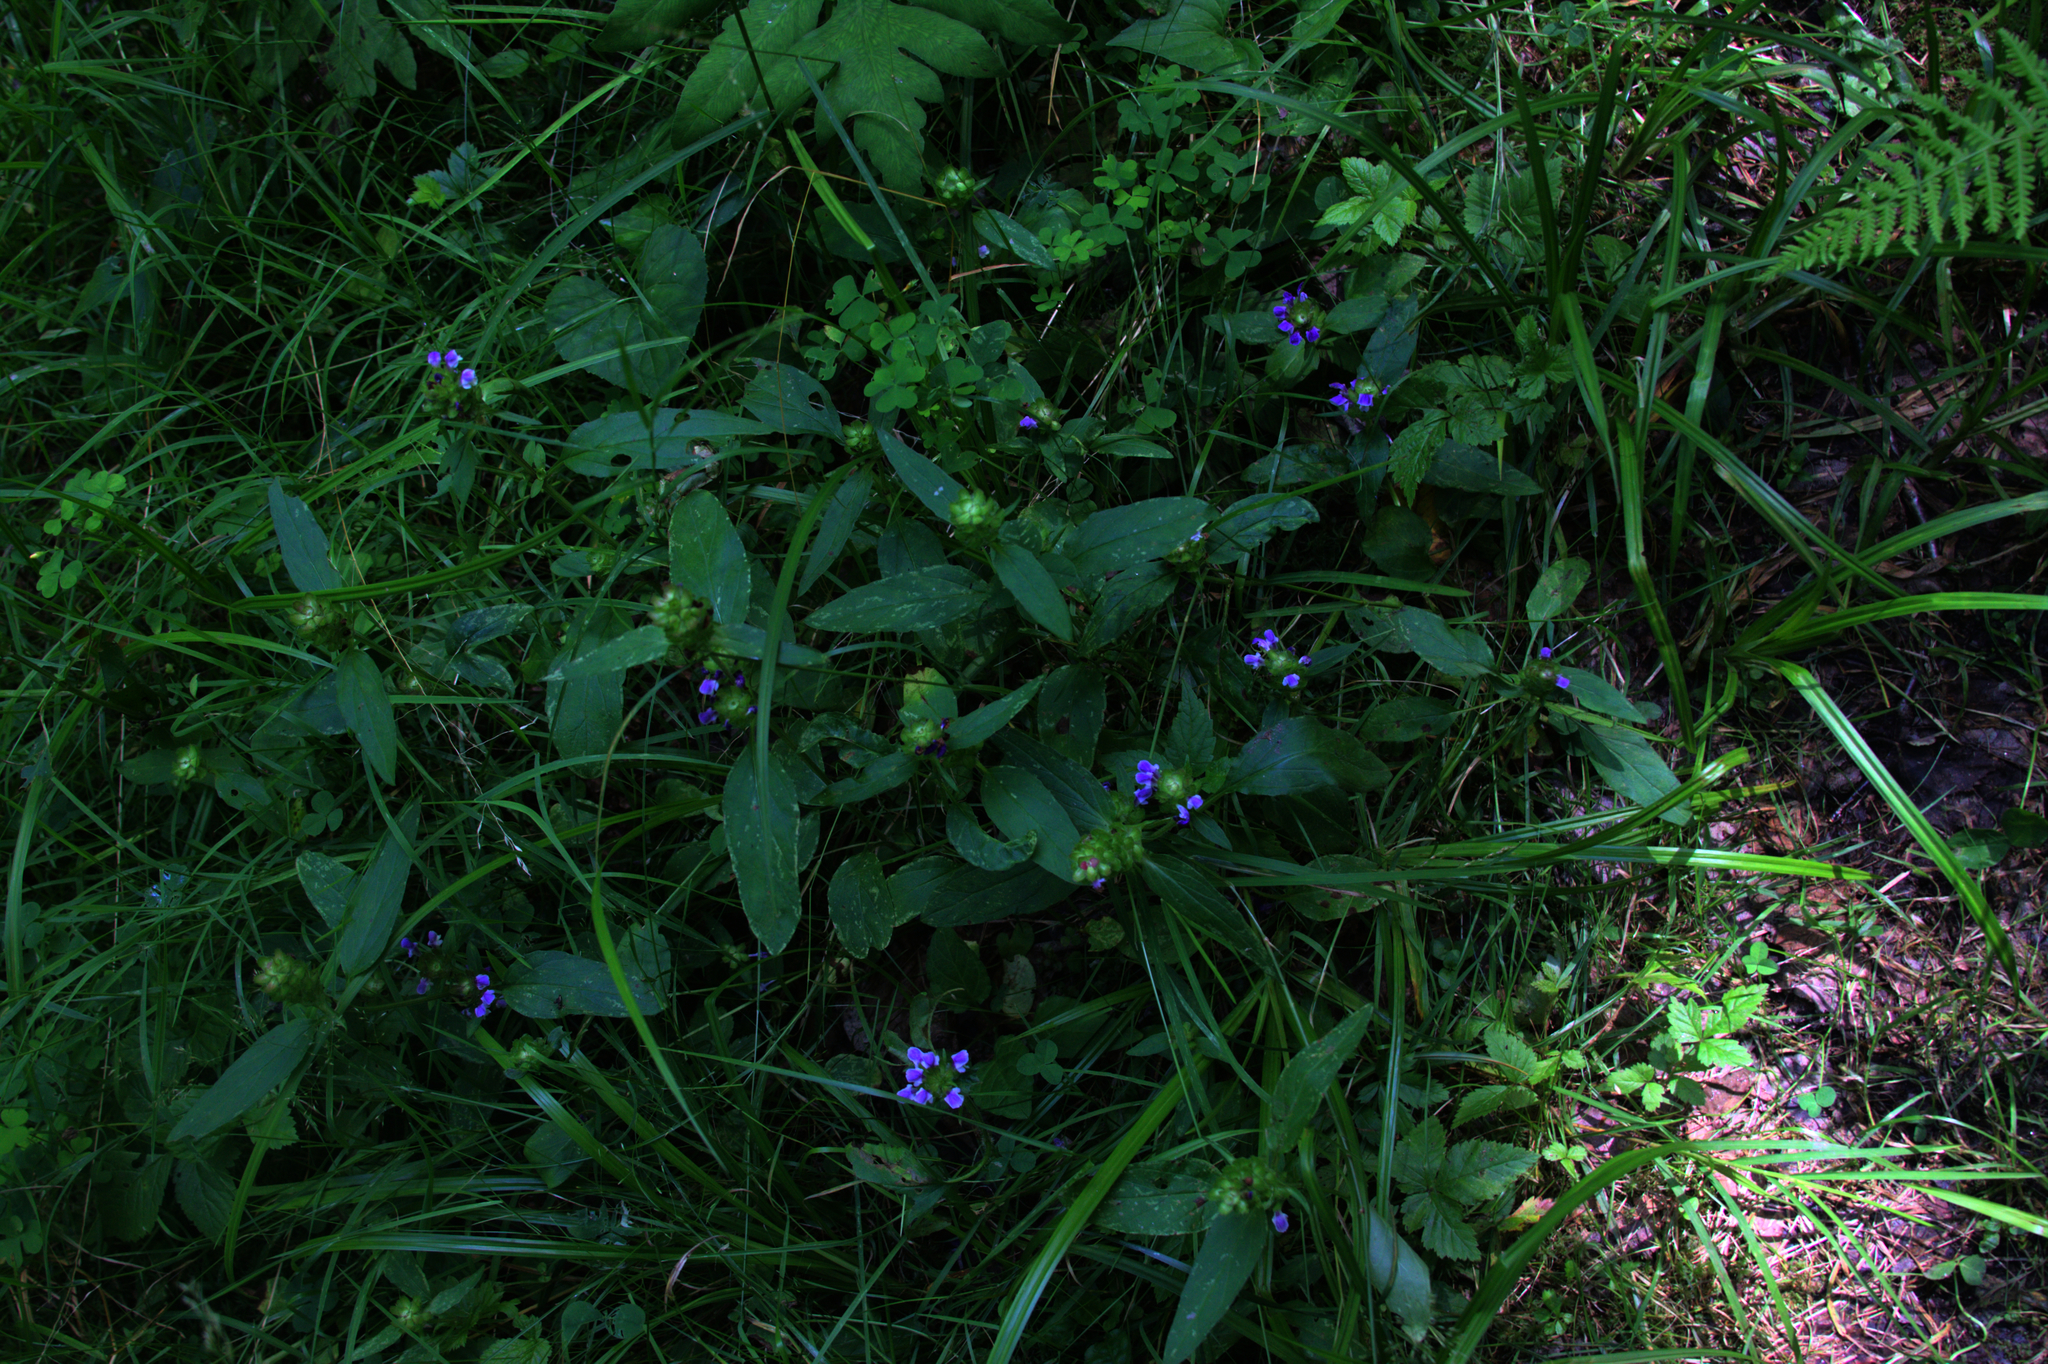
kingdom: Plantae
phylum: Tracheophyta
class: Magnoliopsida
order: Lamiales
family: Lamiaceae
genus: Prunella
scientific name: Prunella vulgaris
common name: Heal-all
